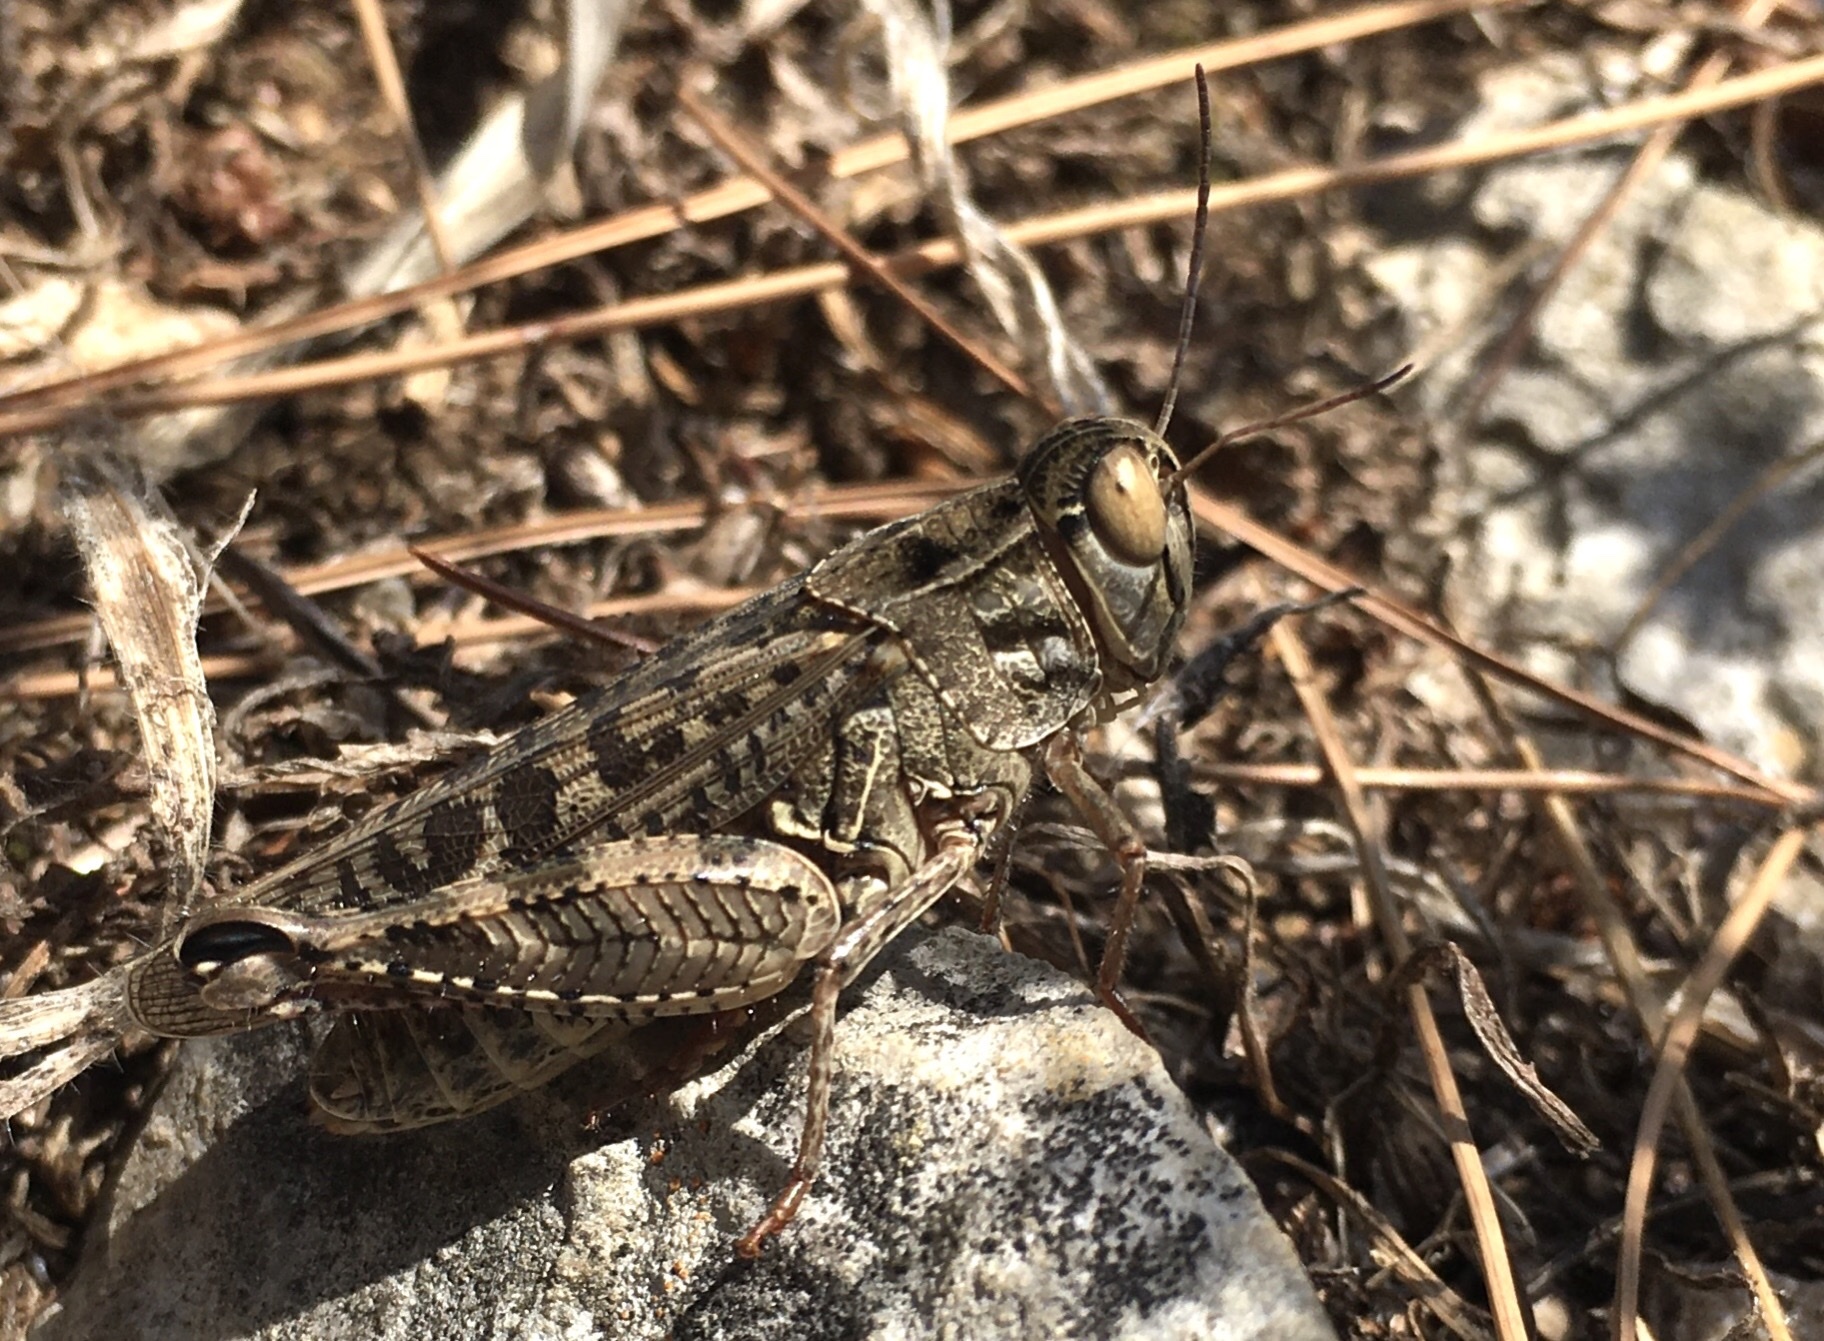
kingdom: Animalia
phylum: Arthropoda
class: Insecta
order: Orthoptera
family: Acrididae
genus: Calliptamus
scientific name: Calliptamus italicus
